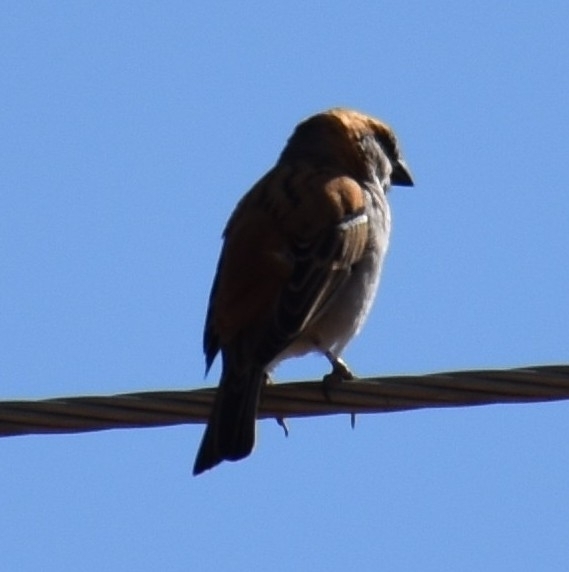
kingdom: Animalia
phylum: Chordata
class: Aves
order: Passeriformes
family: Passeridae
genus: Passer
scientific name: Passer motitensis
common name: Great sparrow
